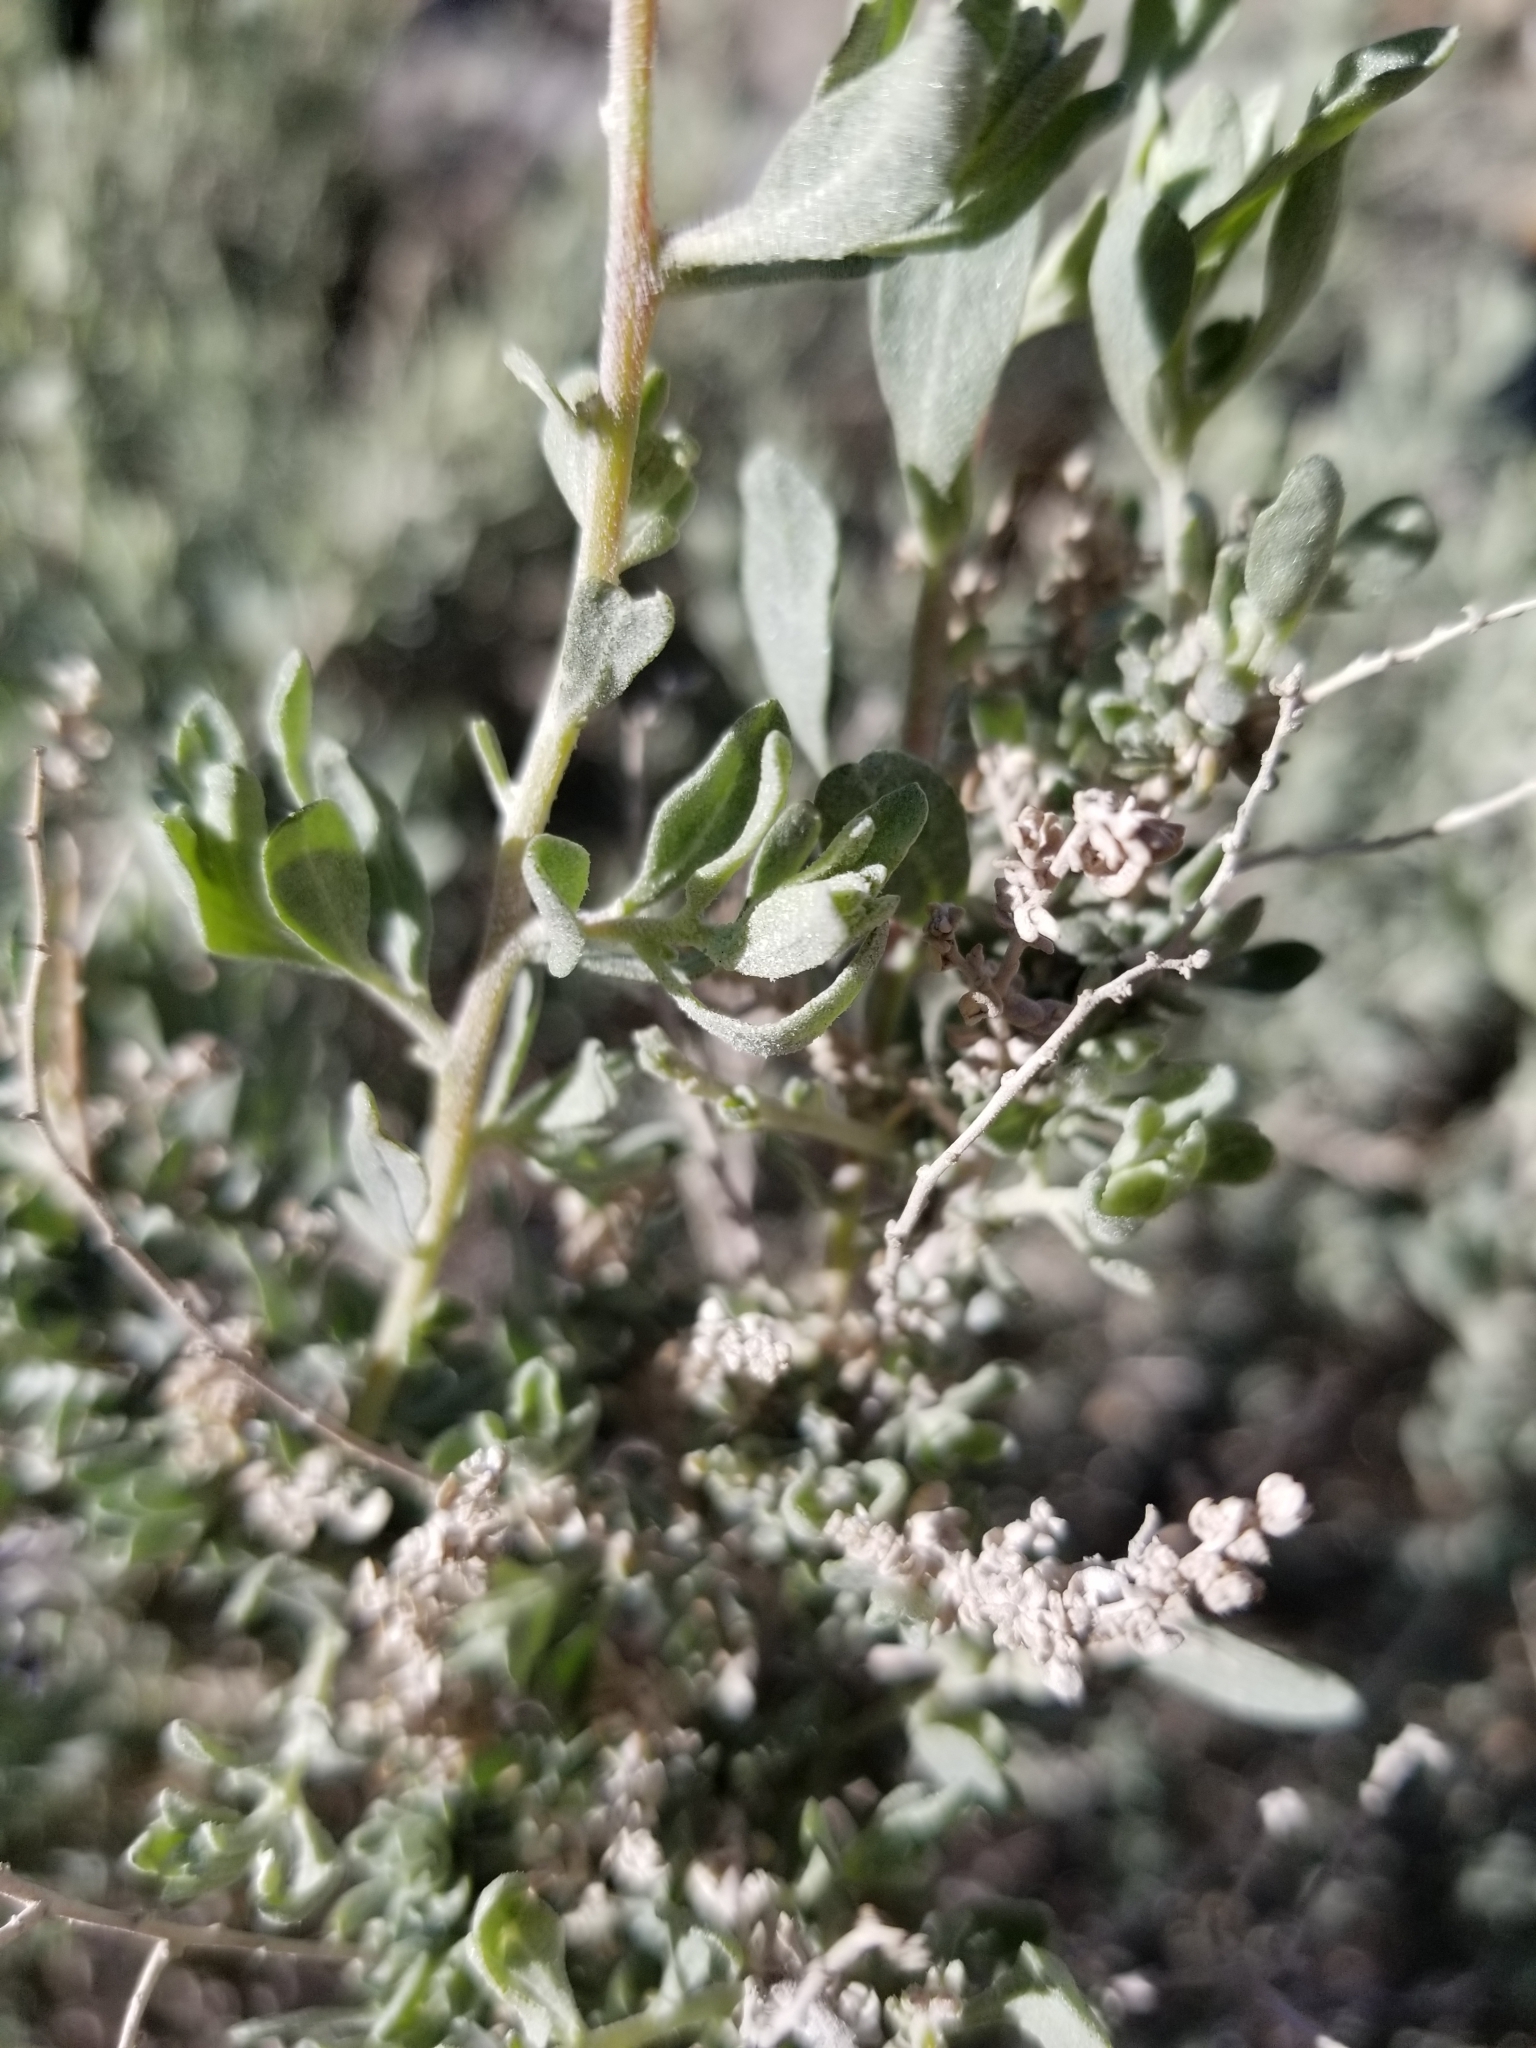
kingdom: Plantae
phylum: Tracheophyta
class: Magnoliopsida
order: Caryophyllales
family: Amaranthaceae
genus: Atriplex
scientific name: Atriplex polycarpa
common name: Desert saltbush
